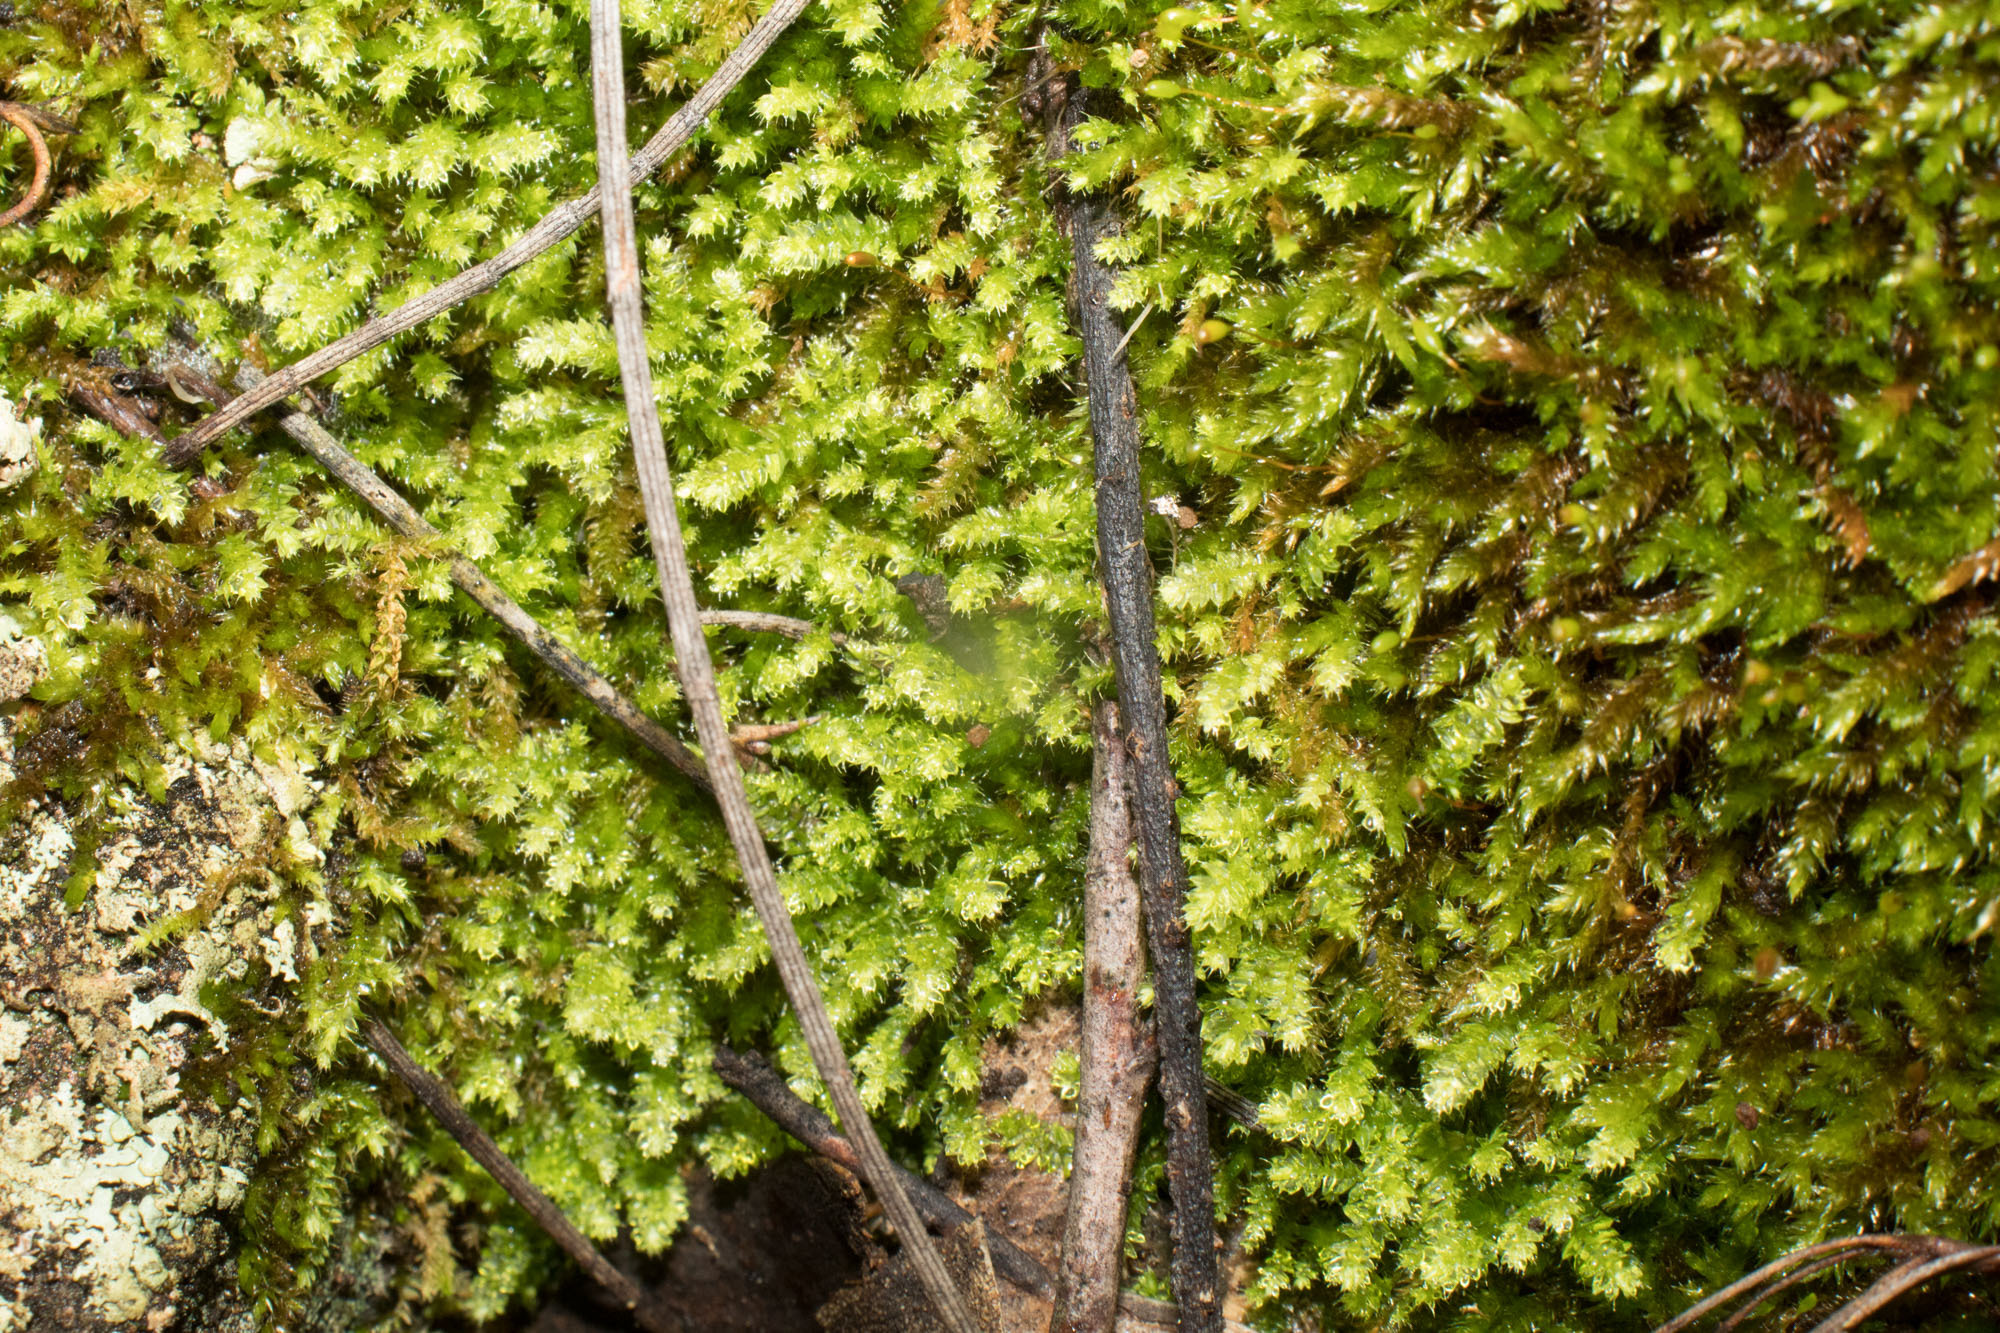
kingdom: Plantae
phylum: Bryophyta
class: Bryopsida
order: Hypnodendrales
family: Racopilaceae
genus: Racopilum
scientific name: Racopilum cuspidigerum
